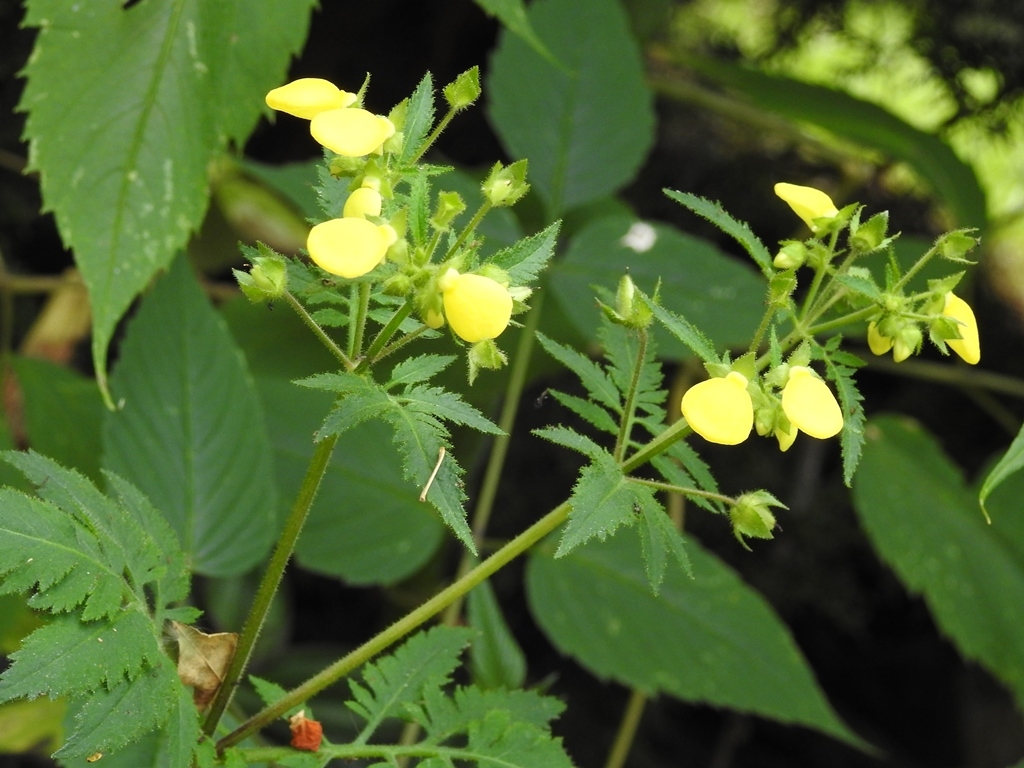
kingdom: Plantae
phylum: Tracheophyta
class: Magnoliopsida
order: Lamiales
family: Calceolariaceae
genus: Calceolaria
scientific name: Calceolaria tripartita
